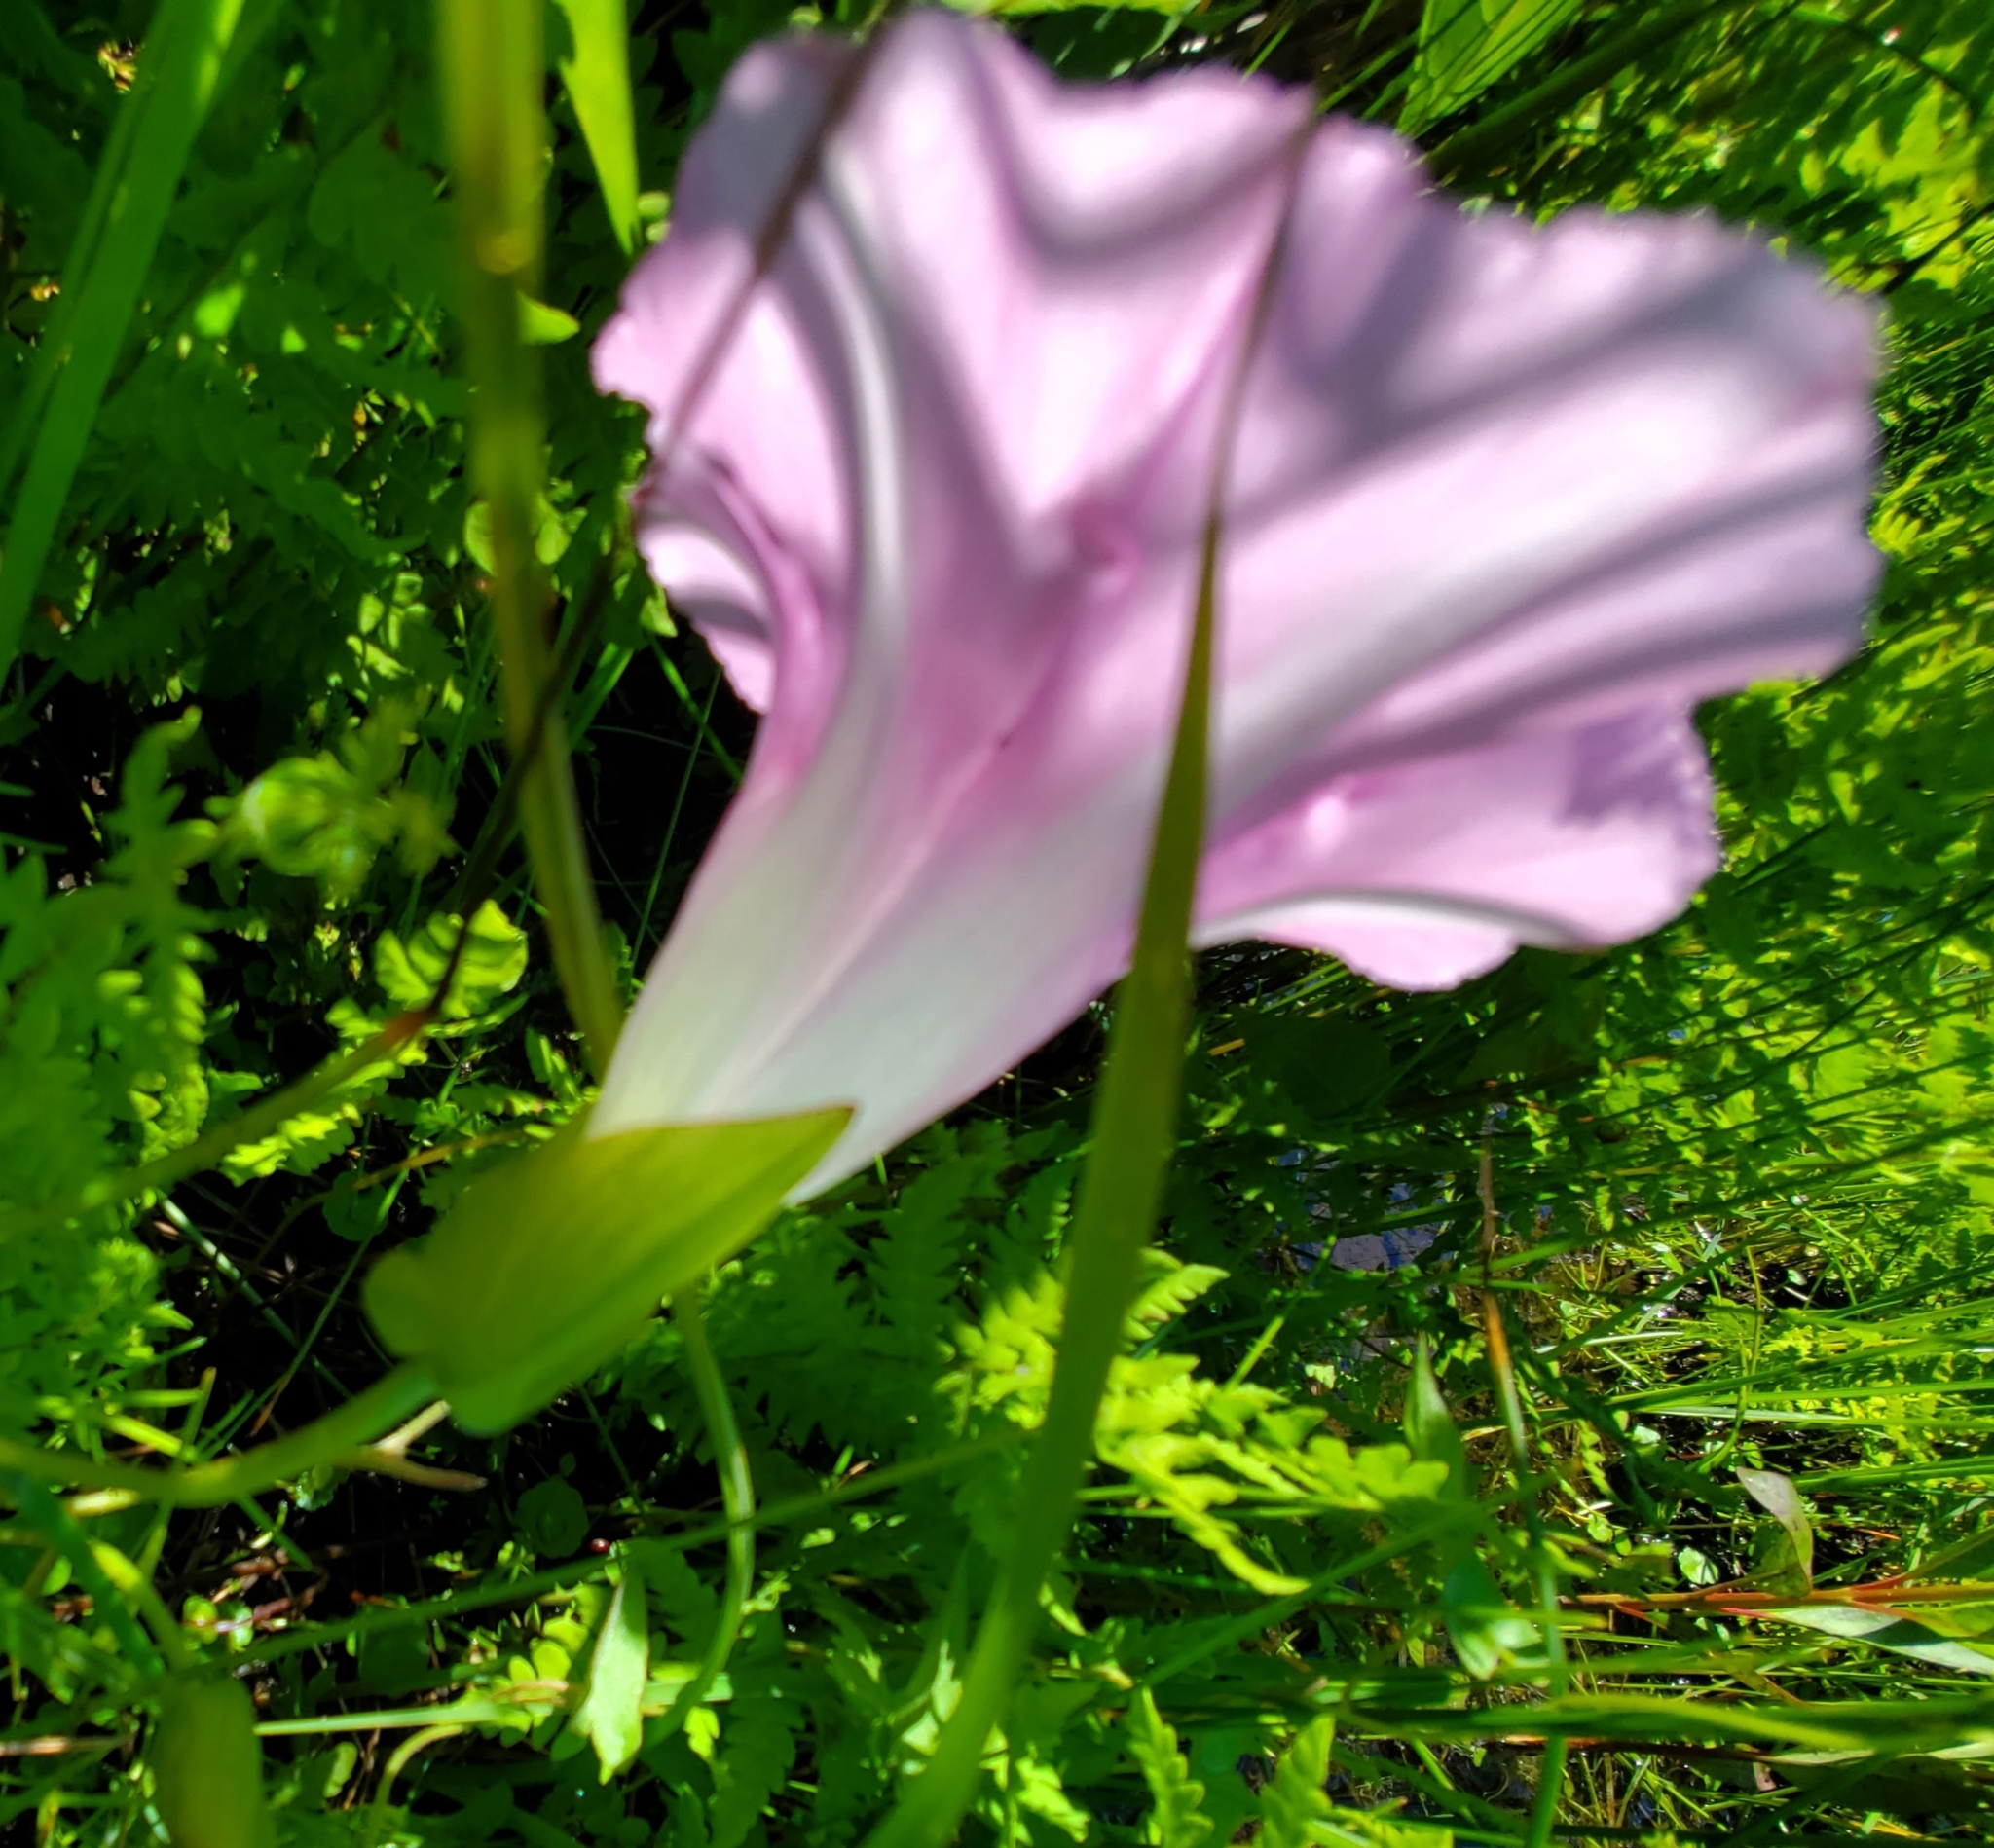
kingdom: Plantae
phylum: Tracheophyta
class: Magnoliopsida
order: Solanales
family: Convolvulaceae
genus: Calystegia
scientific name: Calystegia sepium
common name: Hedge bindweed
